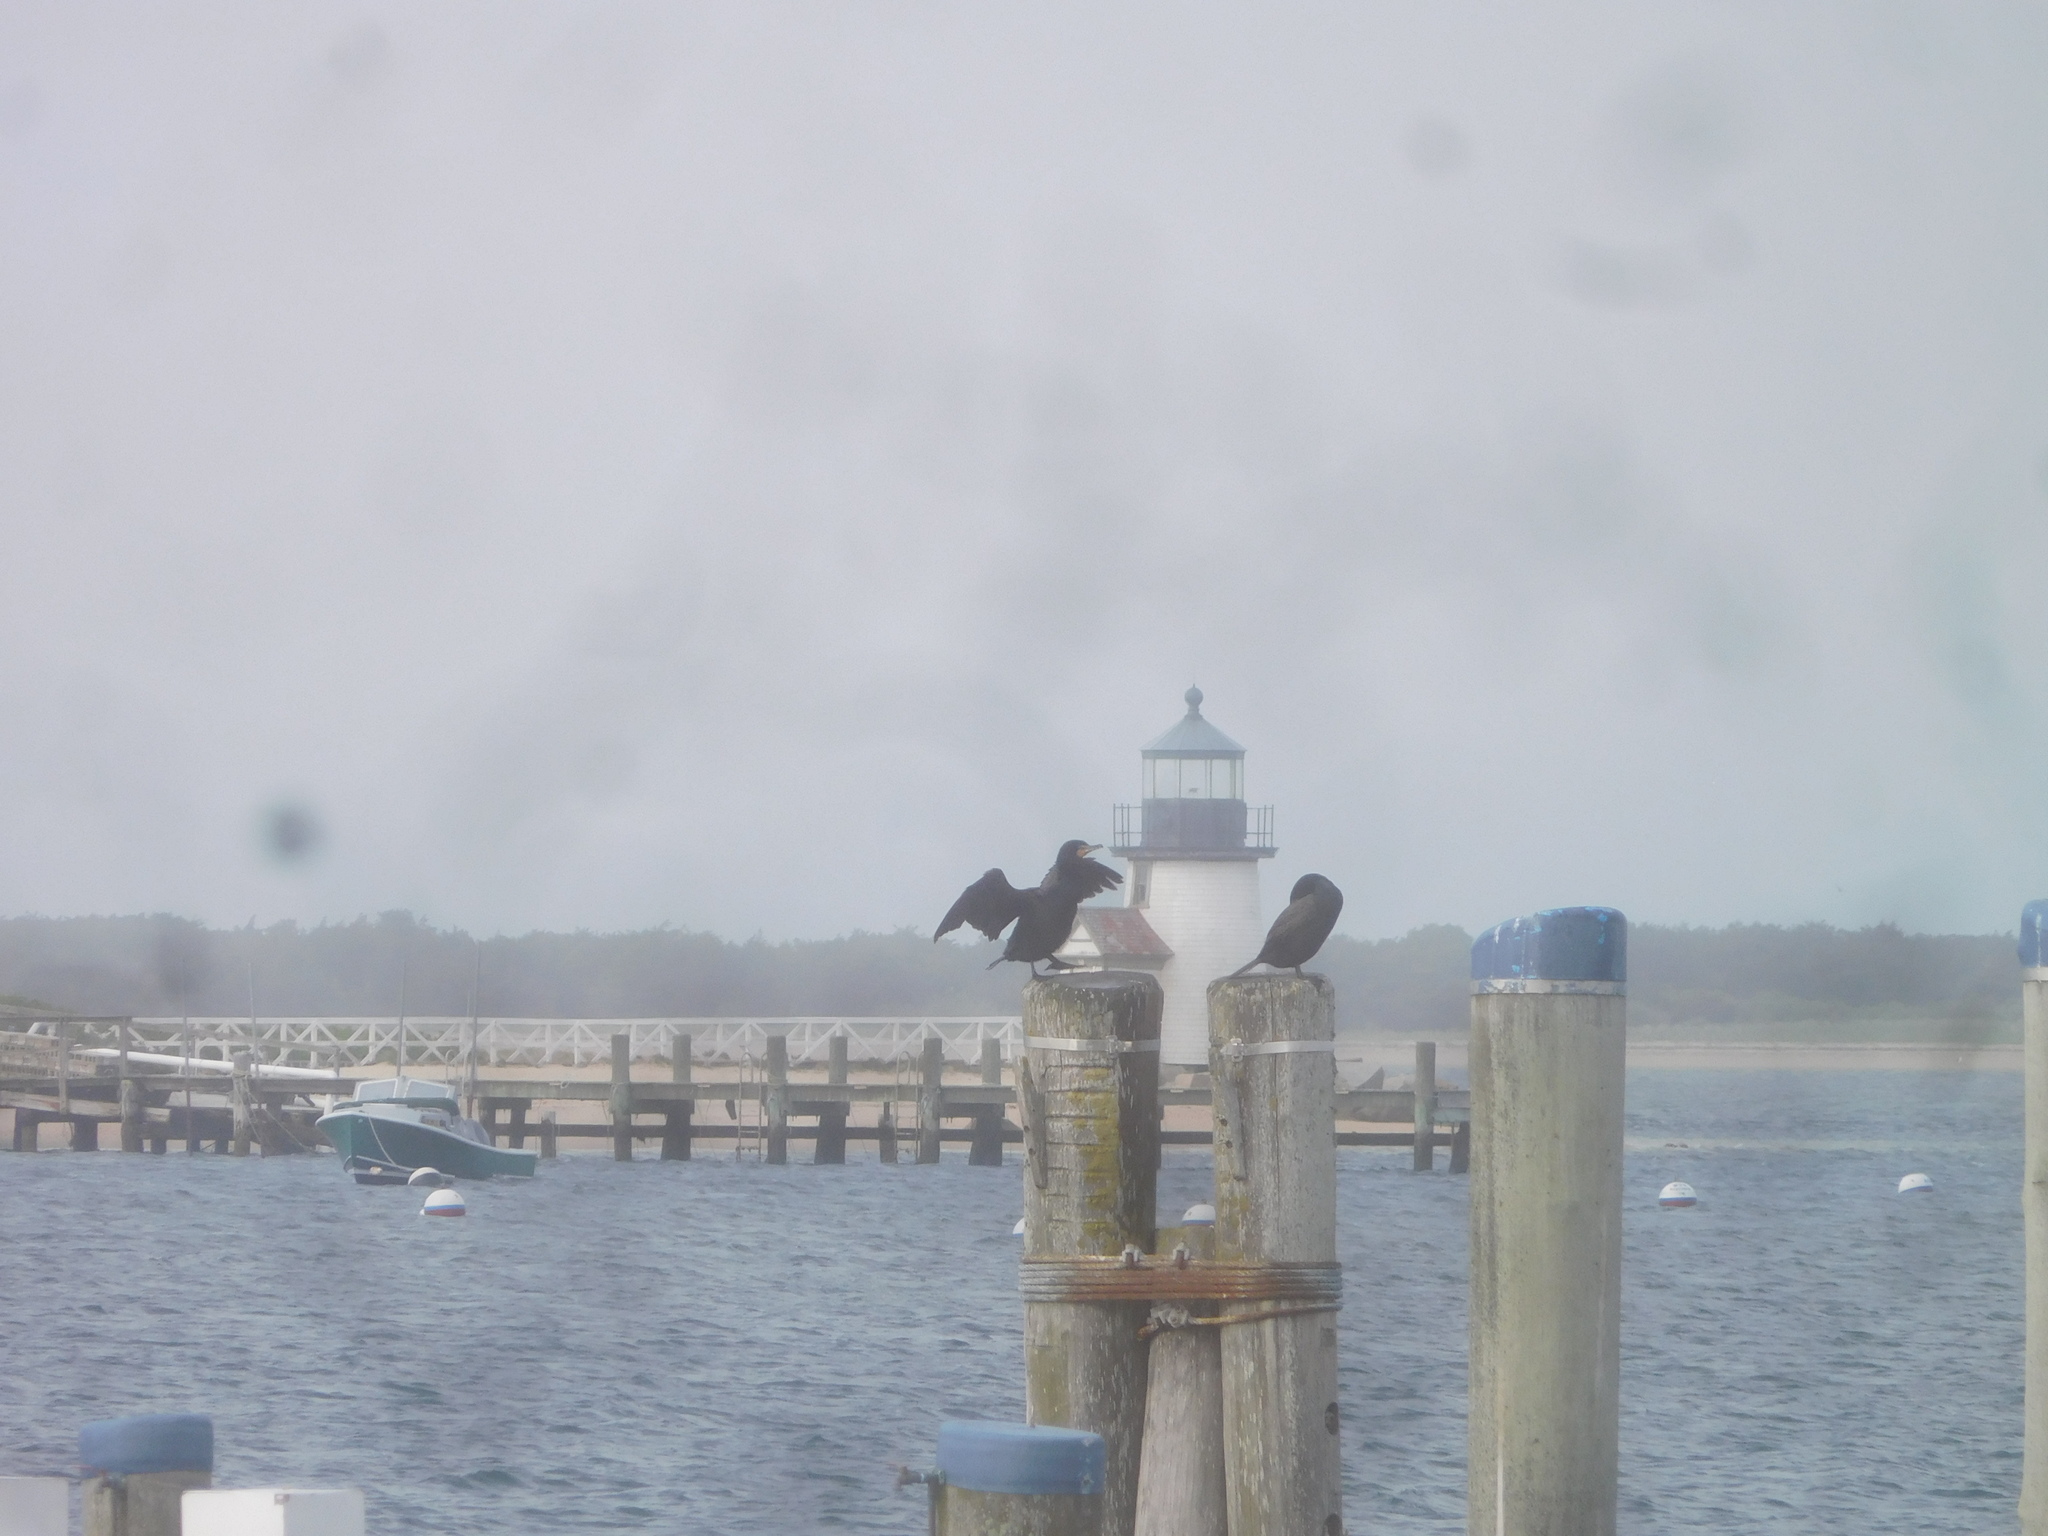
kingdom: Animalia
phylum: Chordata
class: Aves
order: Suliformes
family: Phalacrocoracidae
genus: Phalacrocorax
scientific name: Phalacrocorax auritus
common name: Double-crested cormorant
